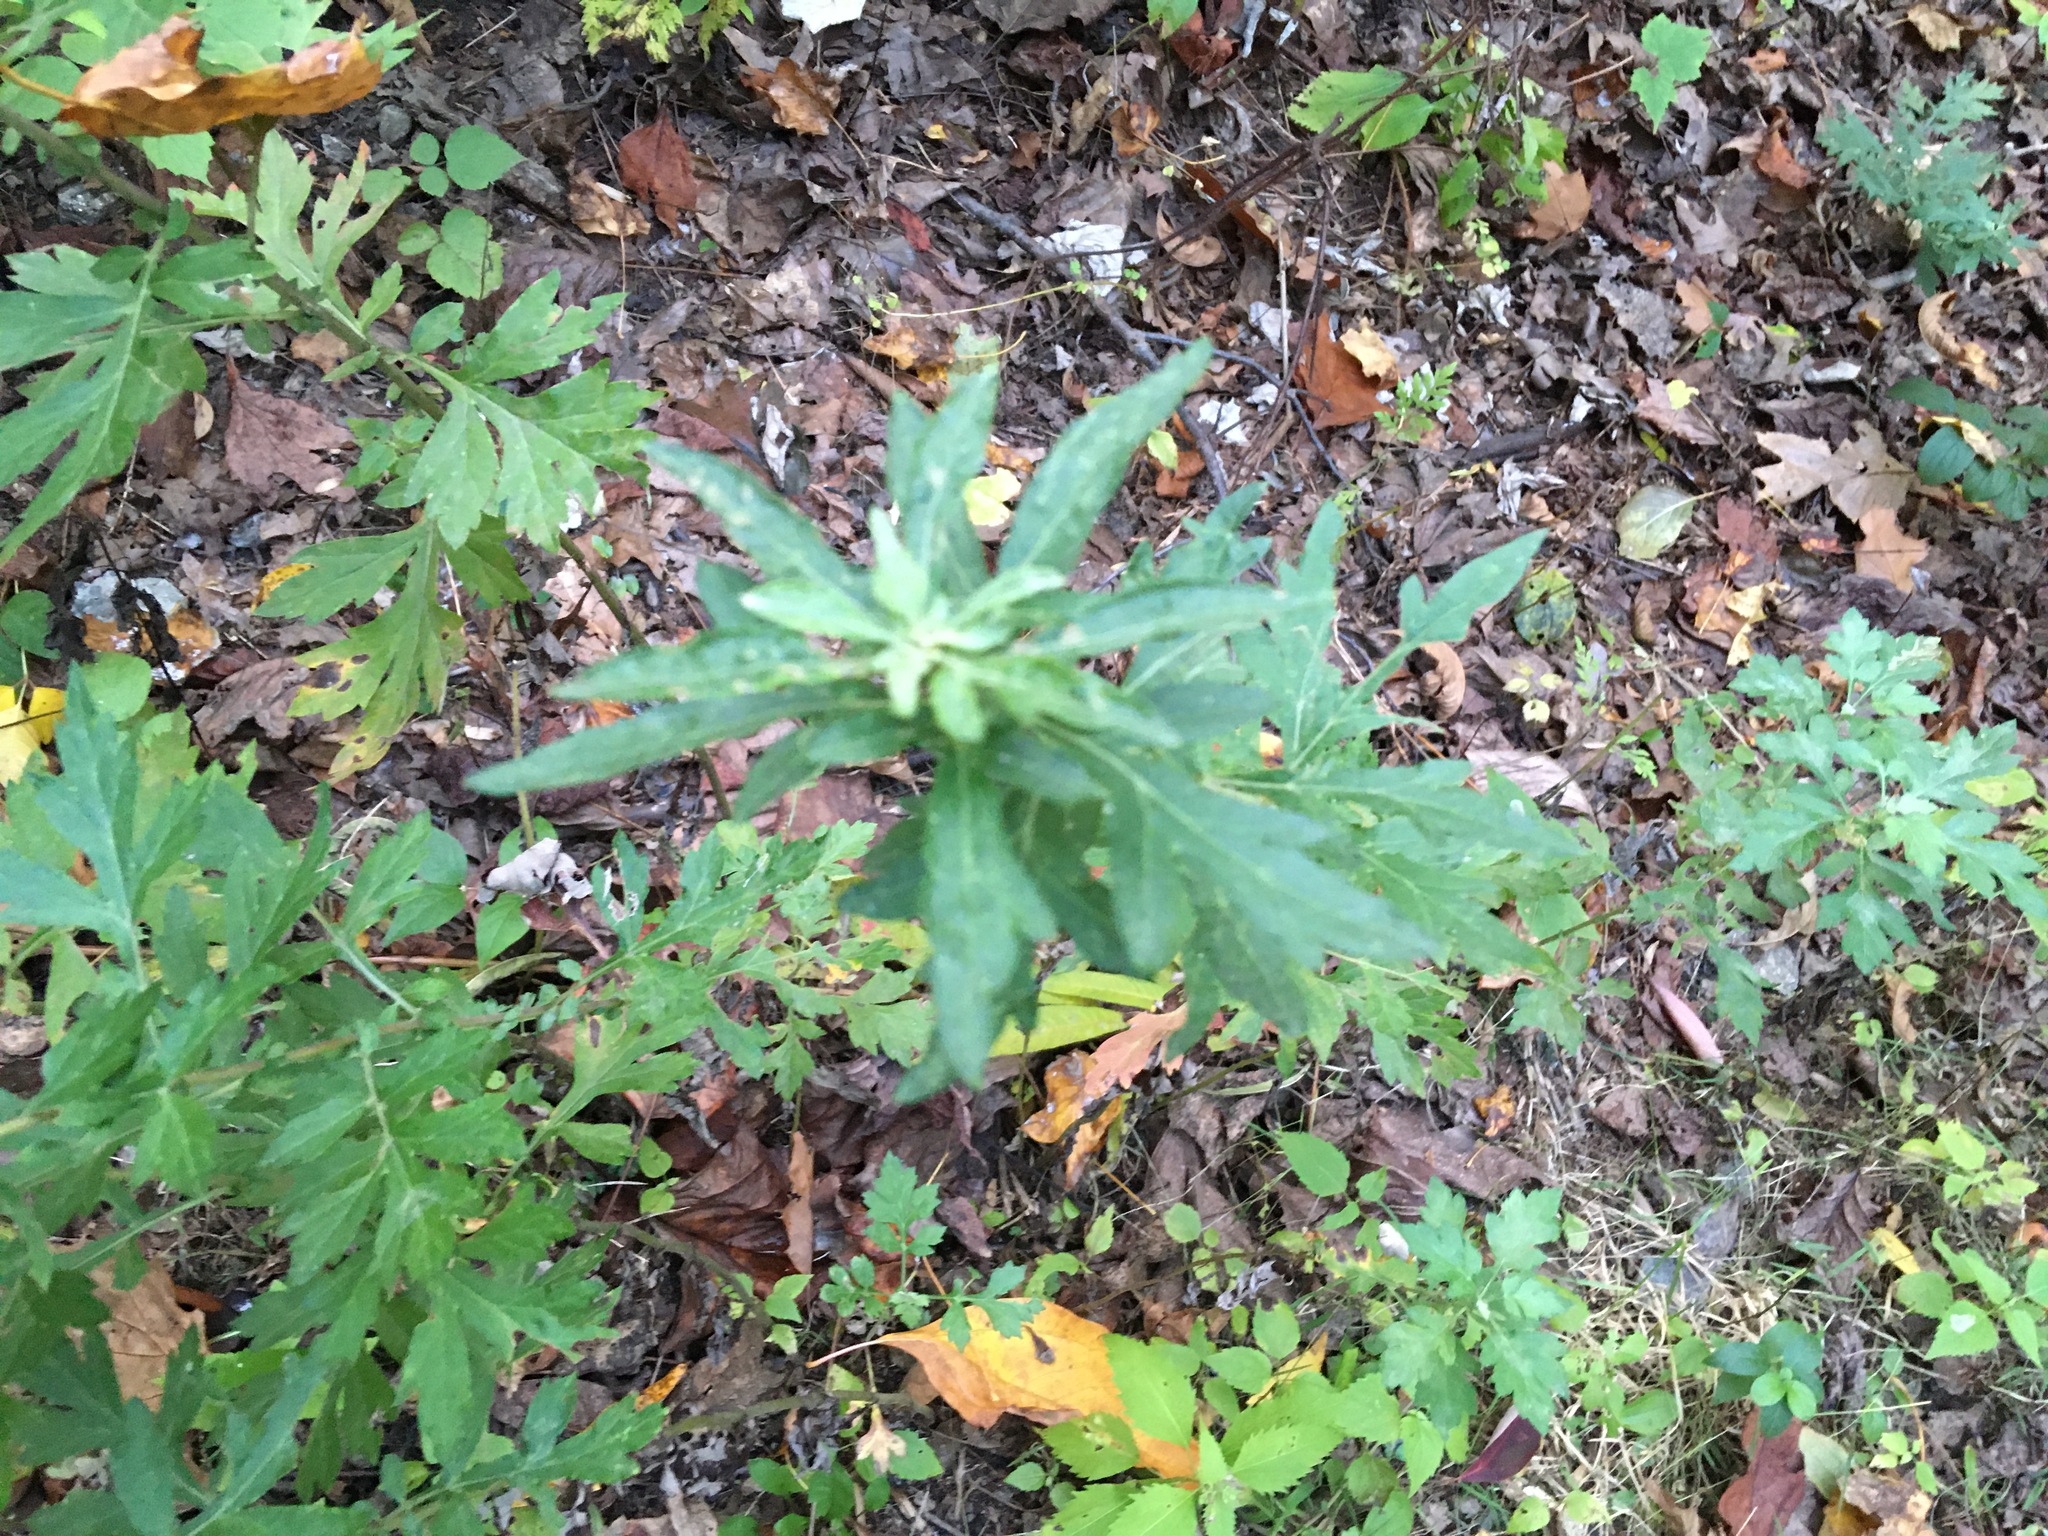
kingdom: Plantae
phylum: Tracheophyta
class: Magnoliopsida
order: Asterales
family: Asteraceae
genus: Artemisia
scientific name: Artemisia vulgaris
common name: Mugwort
